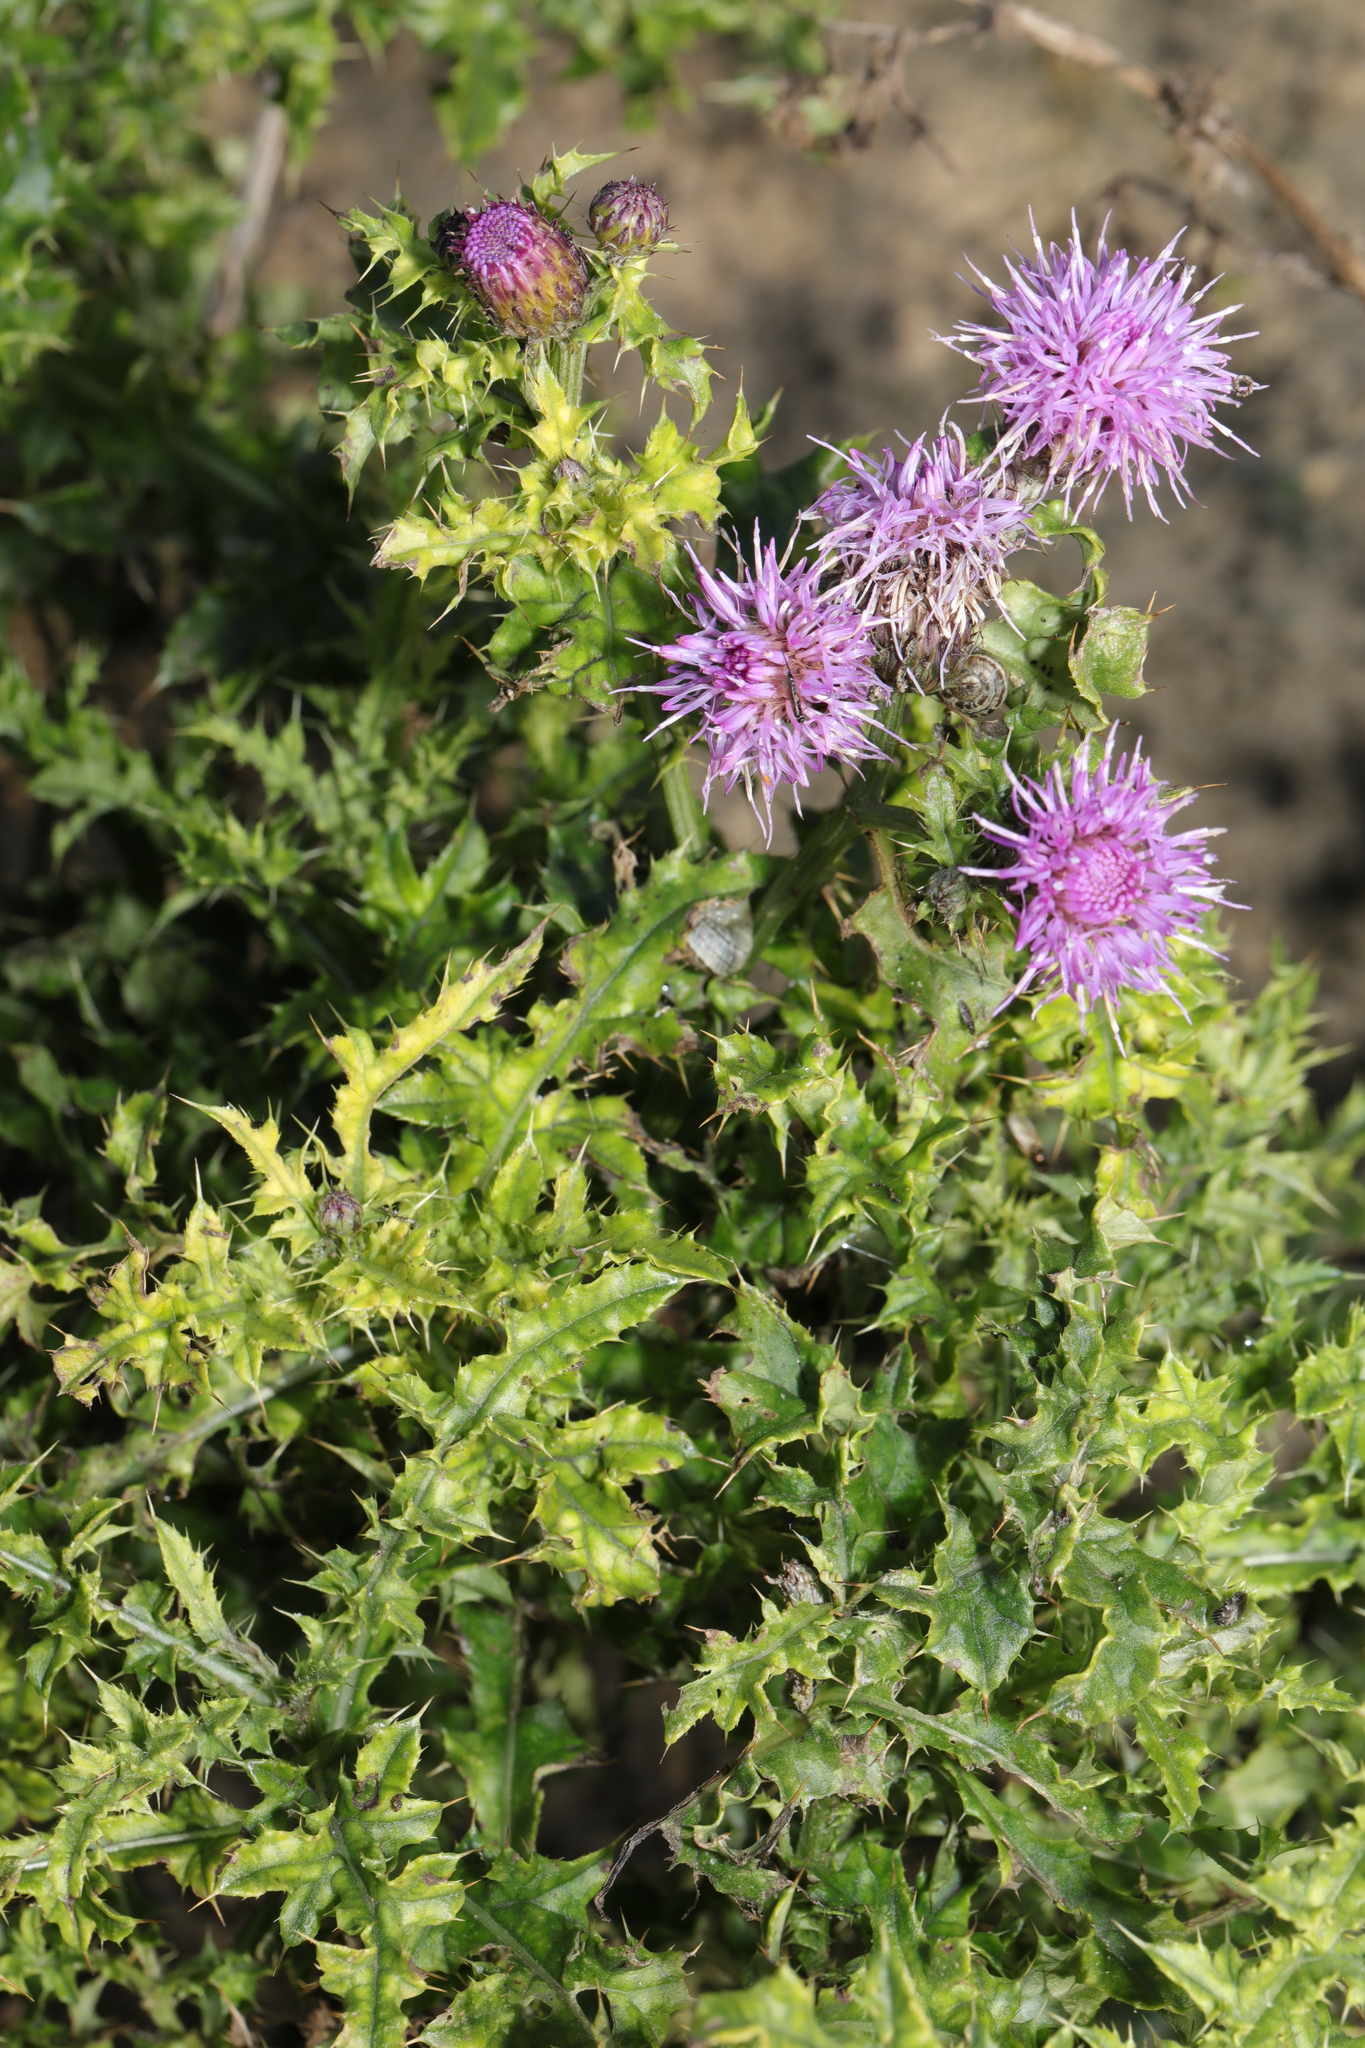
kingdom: Plantae
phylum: Tracheophyta
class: Magnoliopsida
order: Asterales
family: Asteraceae
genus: Cirsium
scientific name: Cirsium arvense
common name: Creeping thistle
